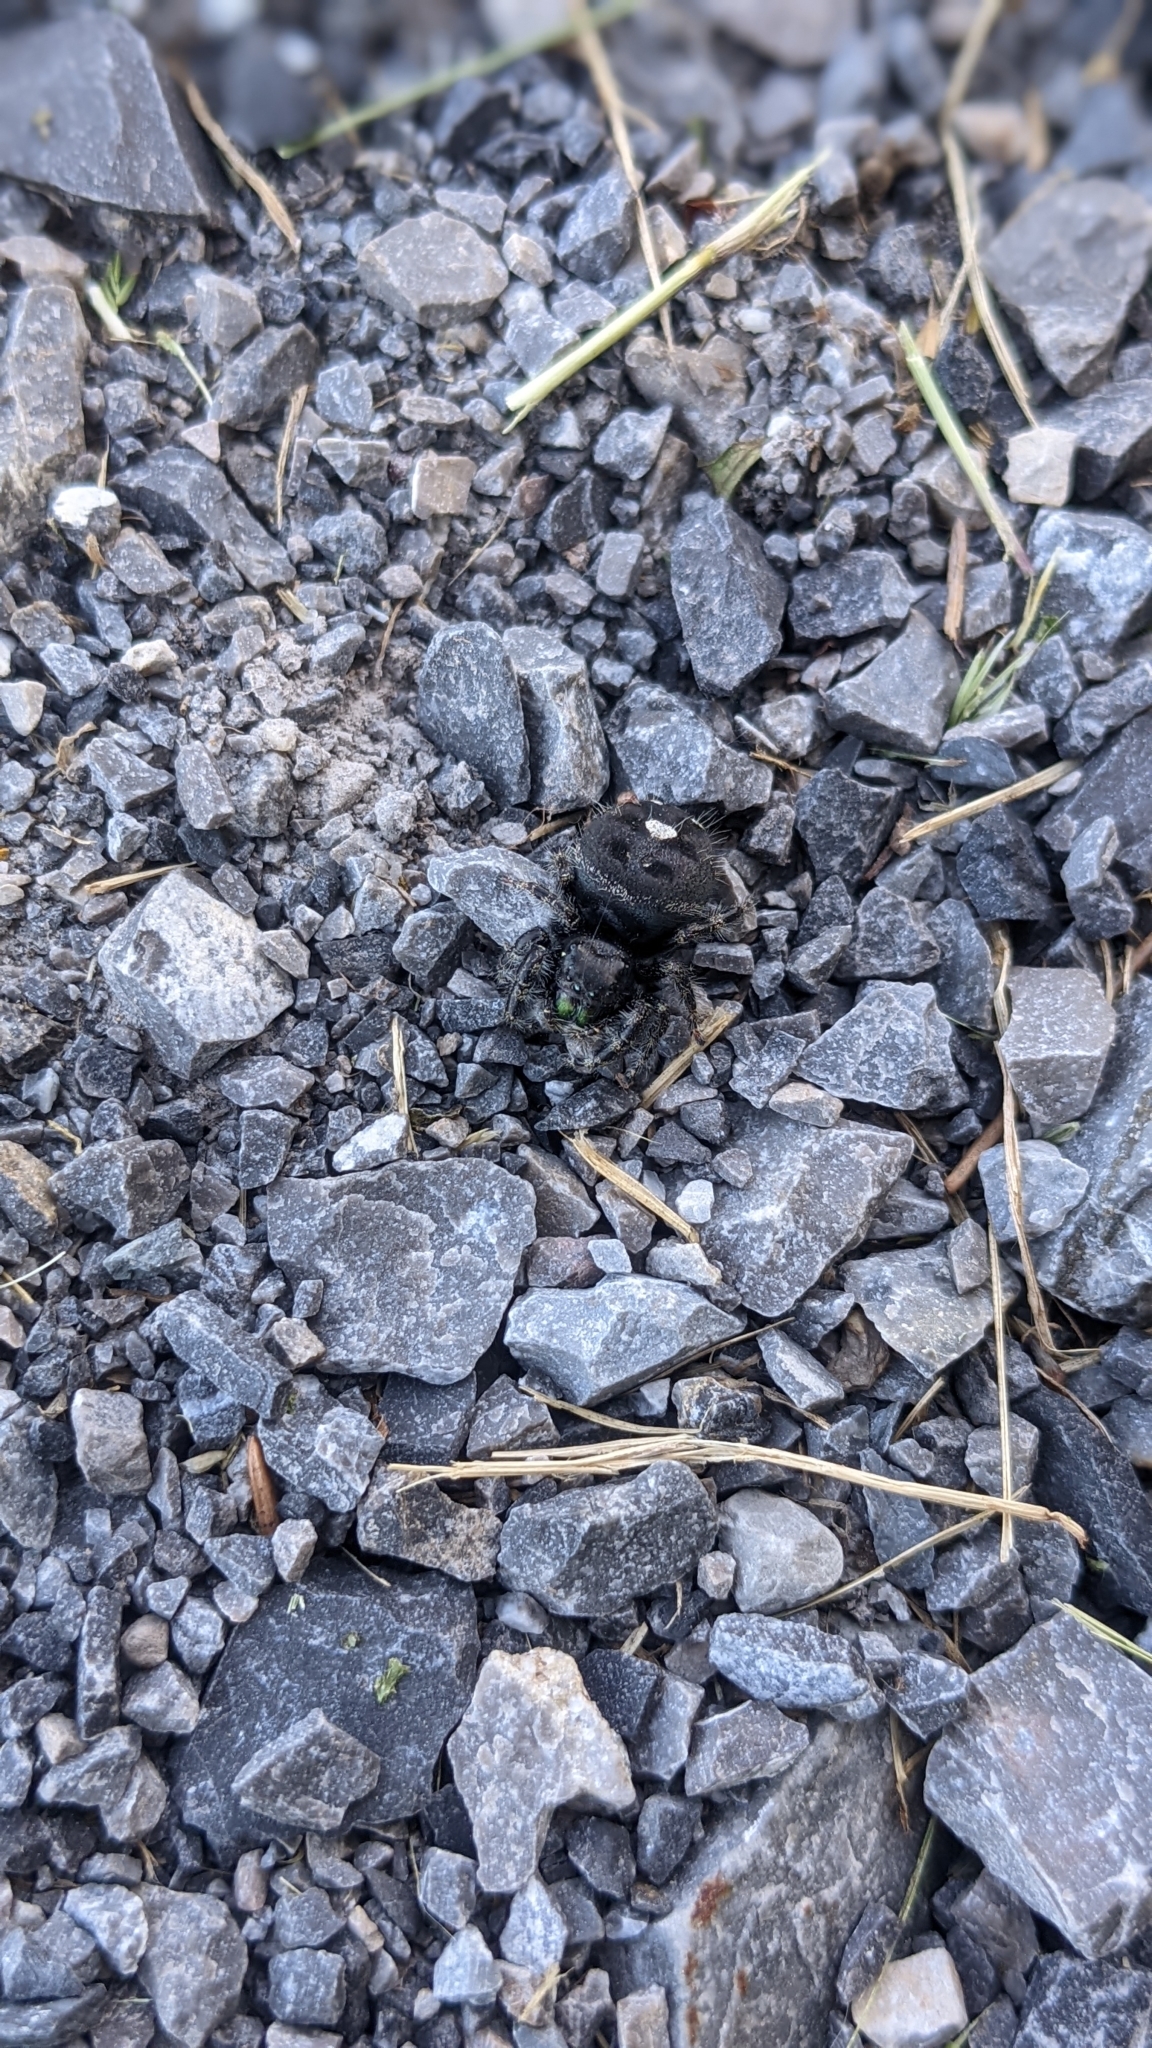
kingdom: Animalia
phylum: Arthropoda
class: Arachnida
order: Araneae
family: Salticidae
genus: Phidippus
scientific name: Phidippus audax
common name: Bold jumper
